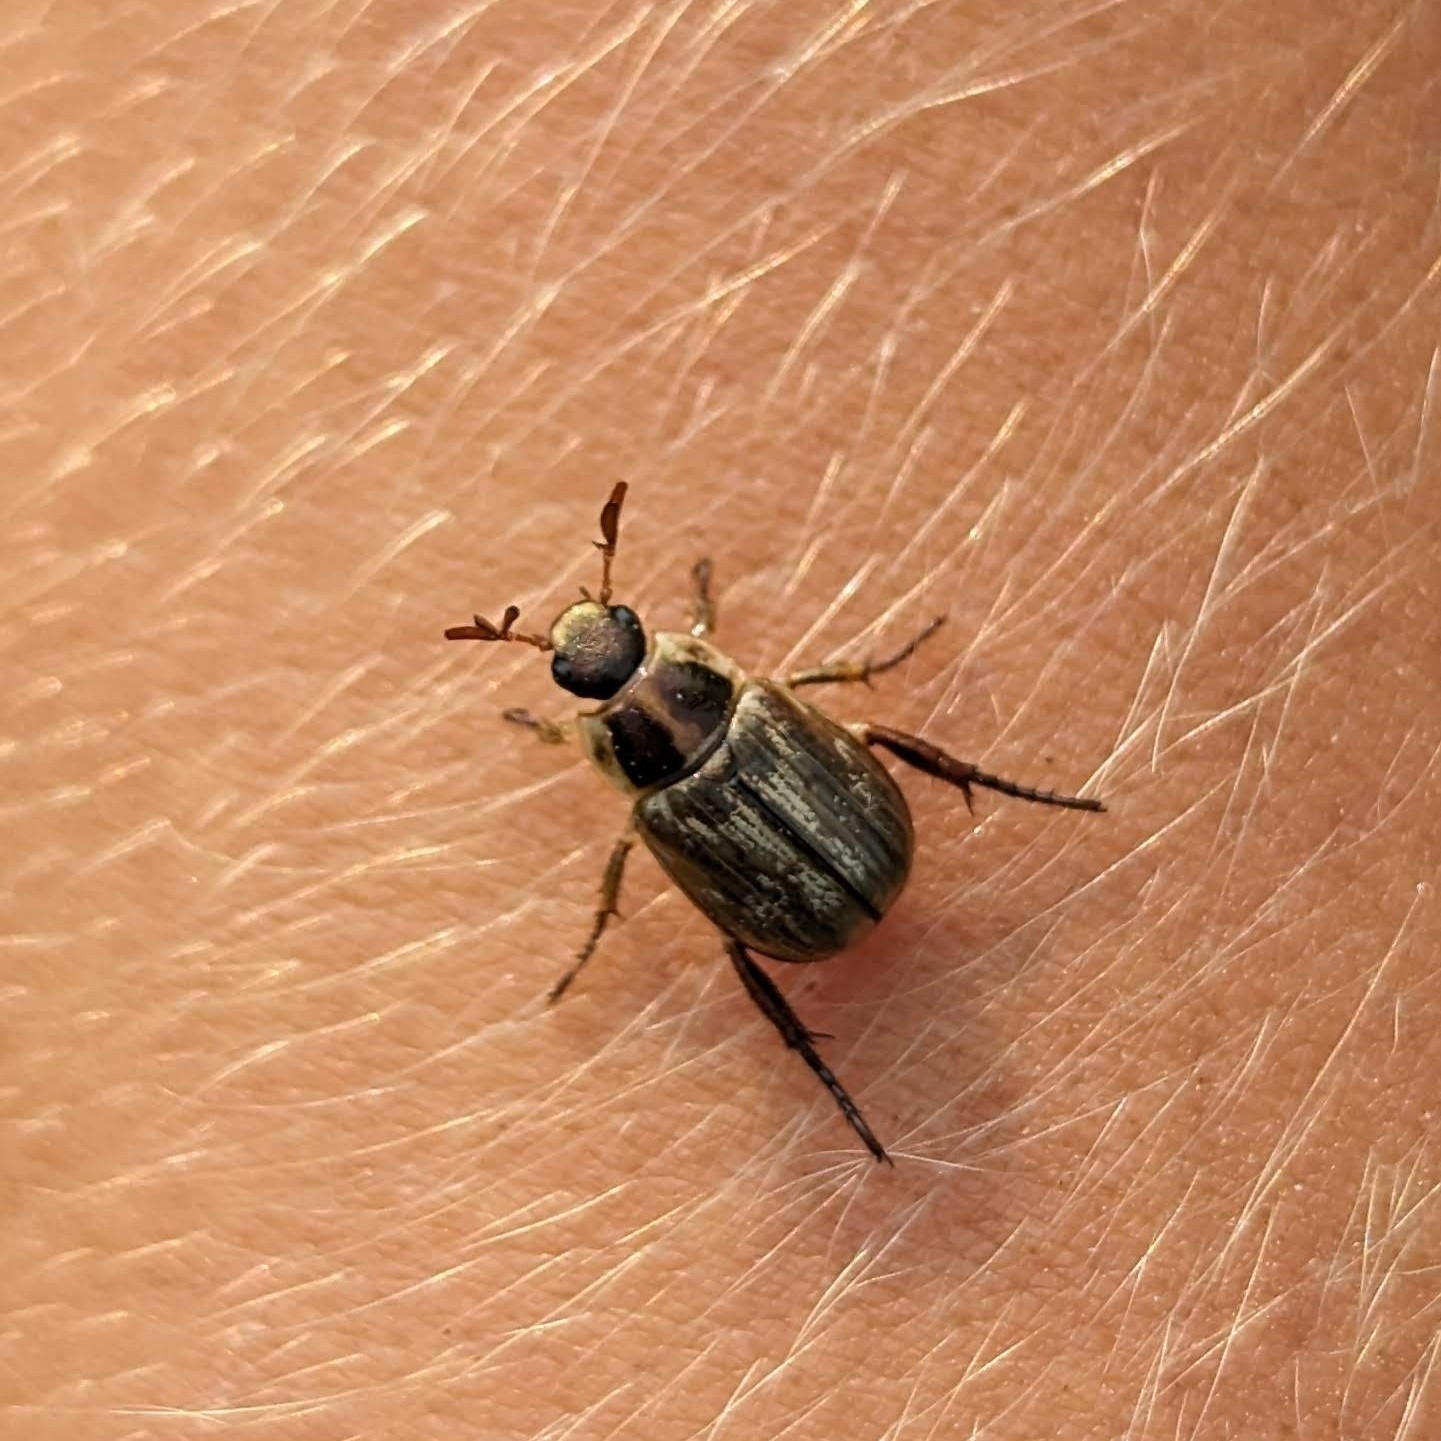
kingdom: Animalia
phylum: Arthropoda
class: Insecta
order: Coleoptera
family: Scarabaeidae
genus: Exomala
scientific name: Exomala orientalis
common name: Oriental beetle
